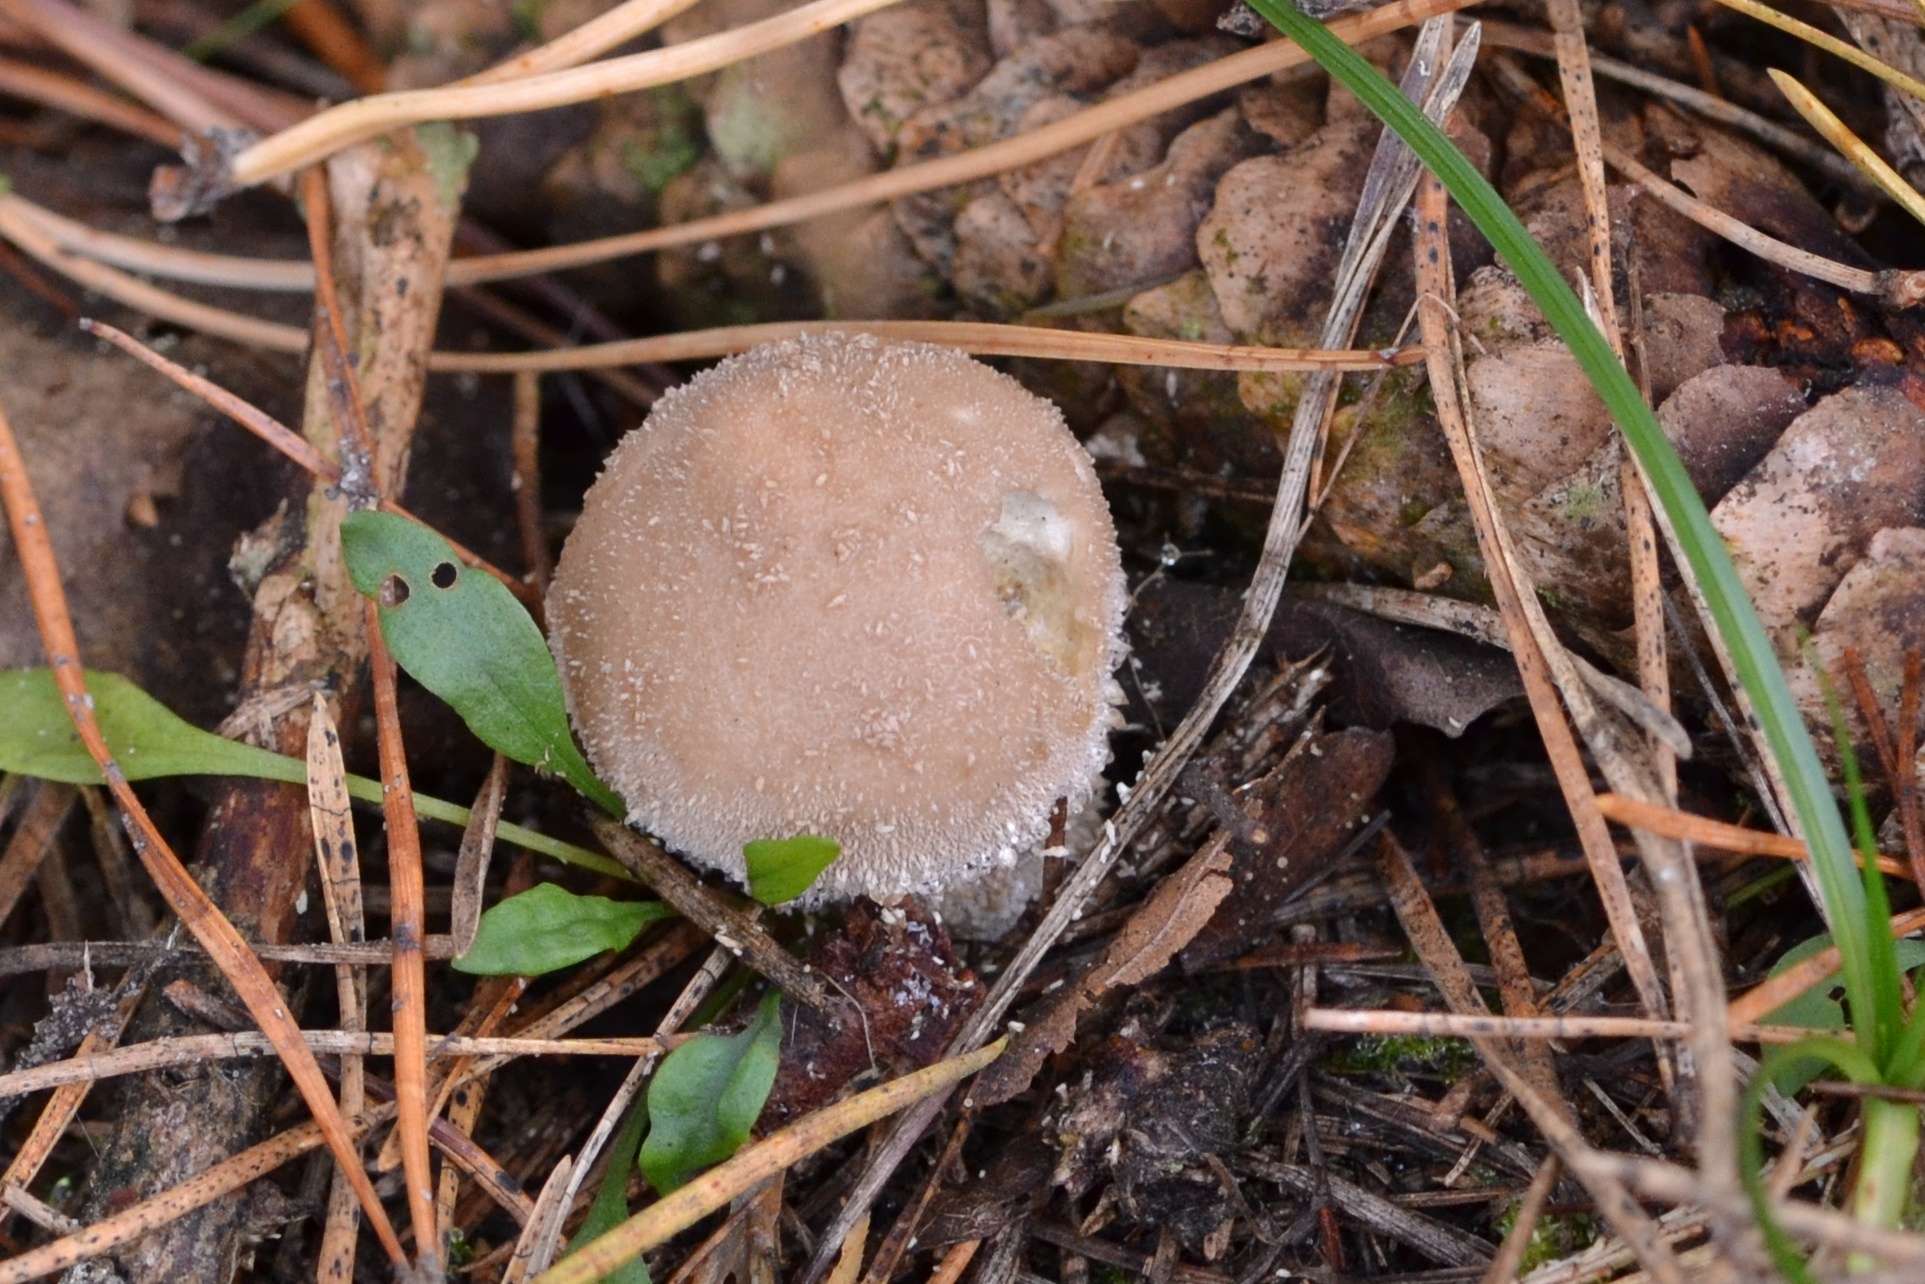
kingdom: Fungi
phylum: Basidiomycota
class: Agaricomycetes
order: Agaricales
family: Lycoperdaceae
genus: Lycoperdon
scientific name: Lycoperdon umbrinum
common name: Umber-brown puffball
